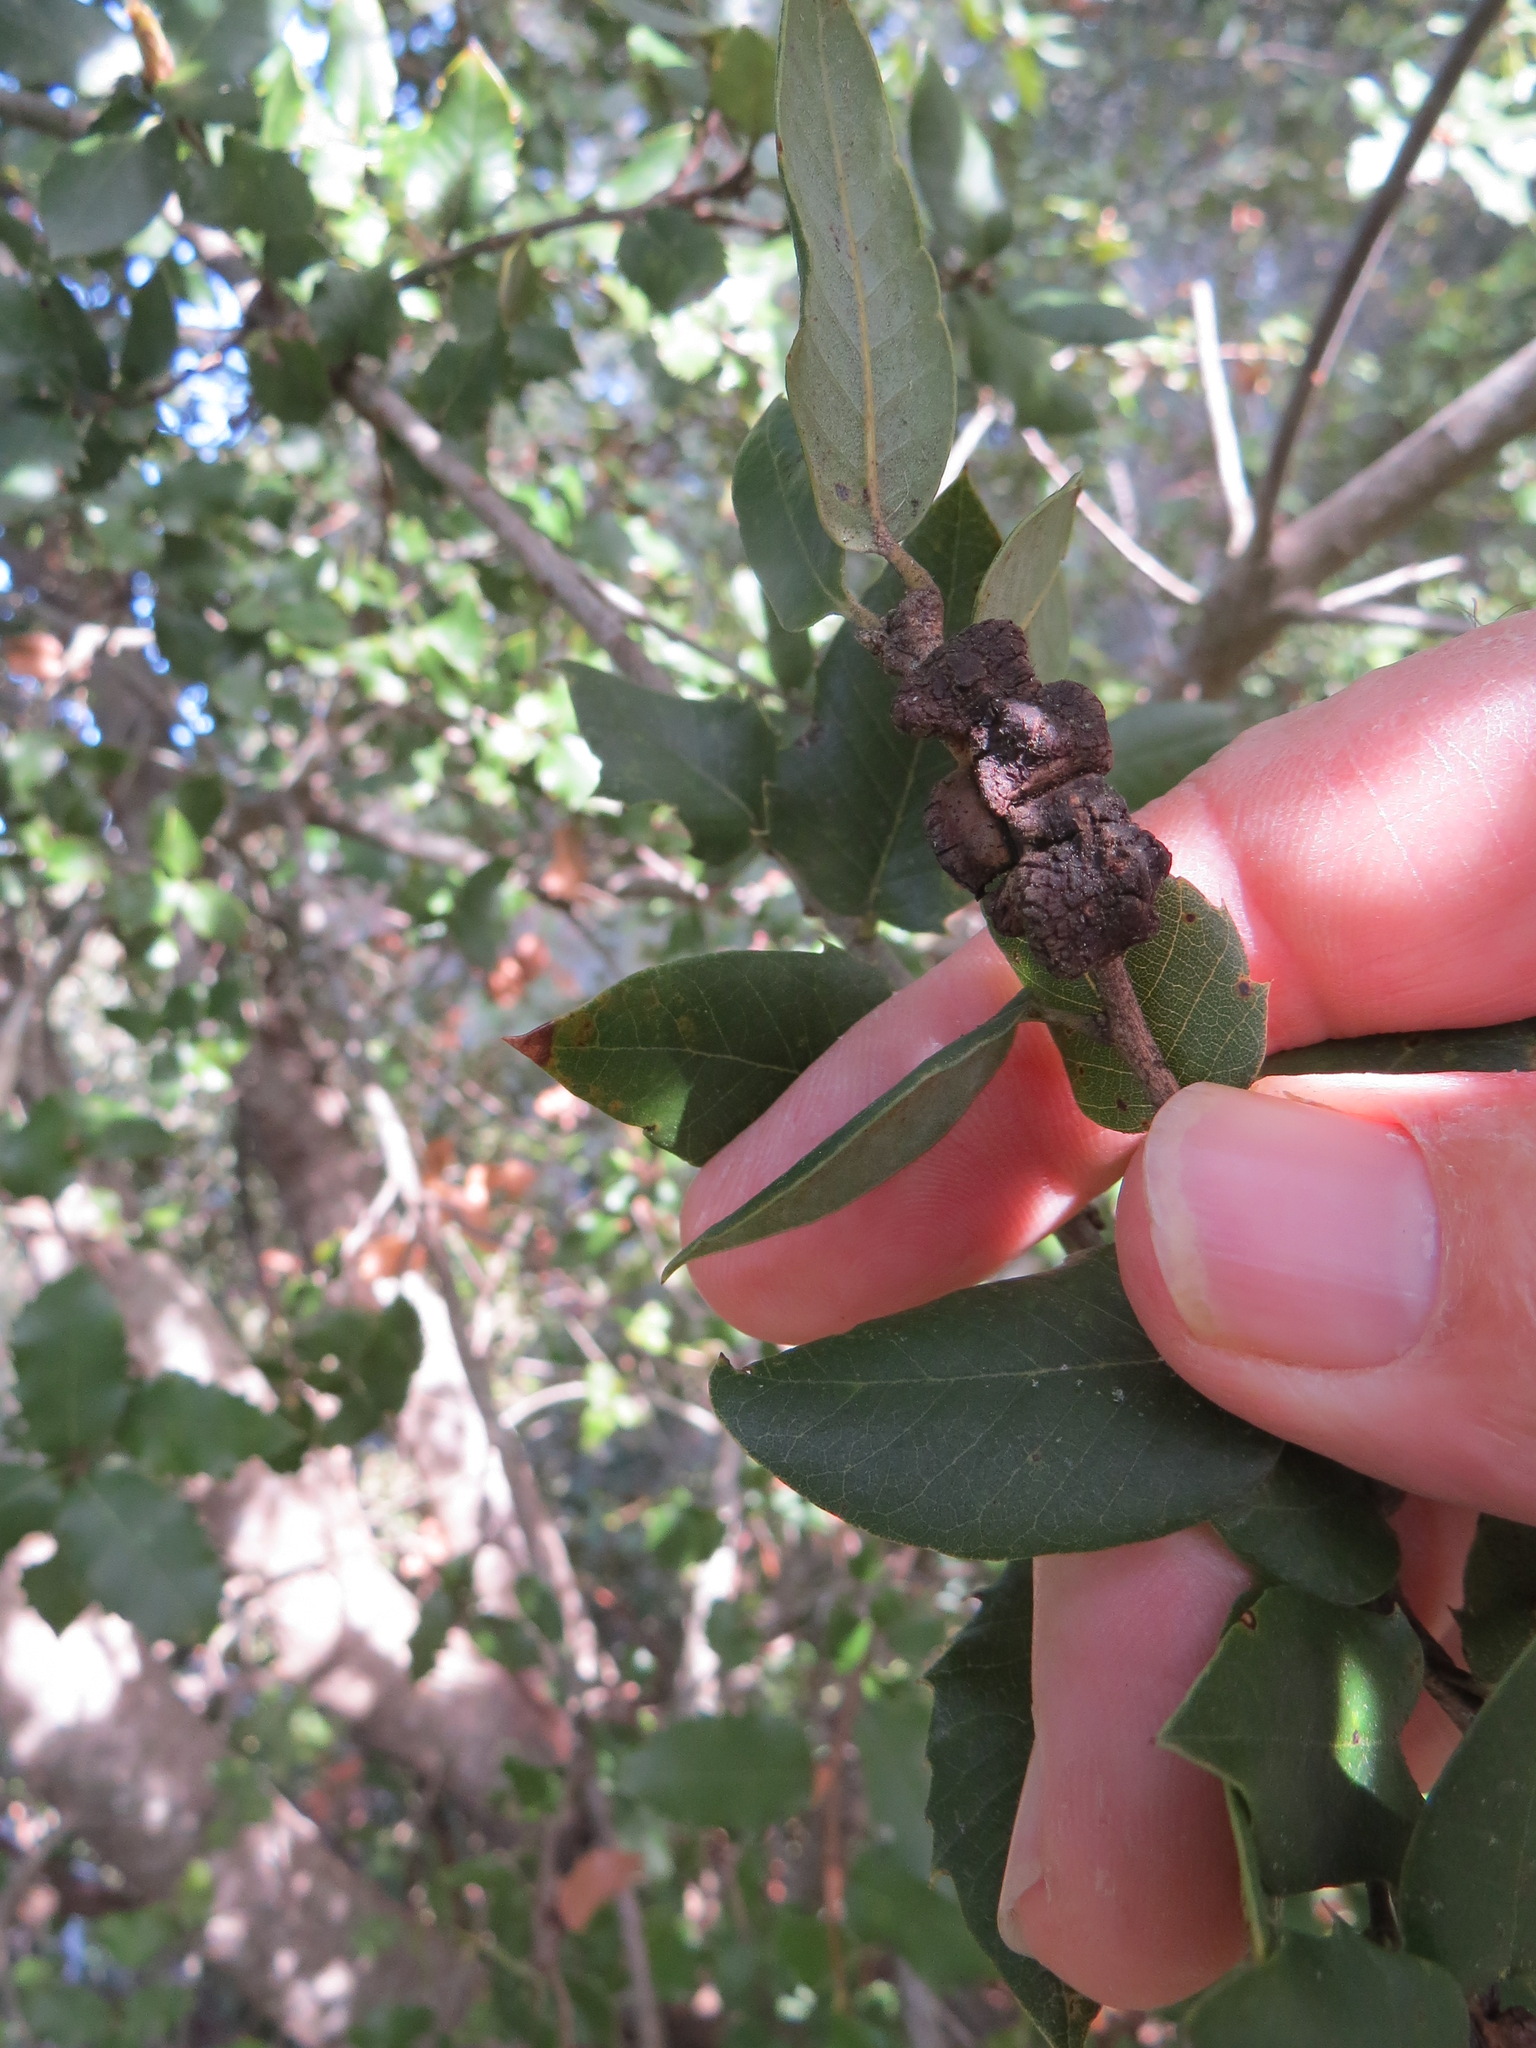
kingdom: Animalia
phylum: Arthropoda
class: Insecta
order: Hymenoptera
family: Cynipidae
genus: Disholandricus
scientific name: Disholandricus
